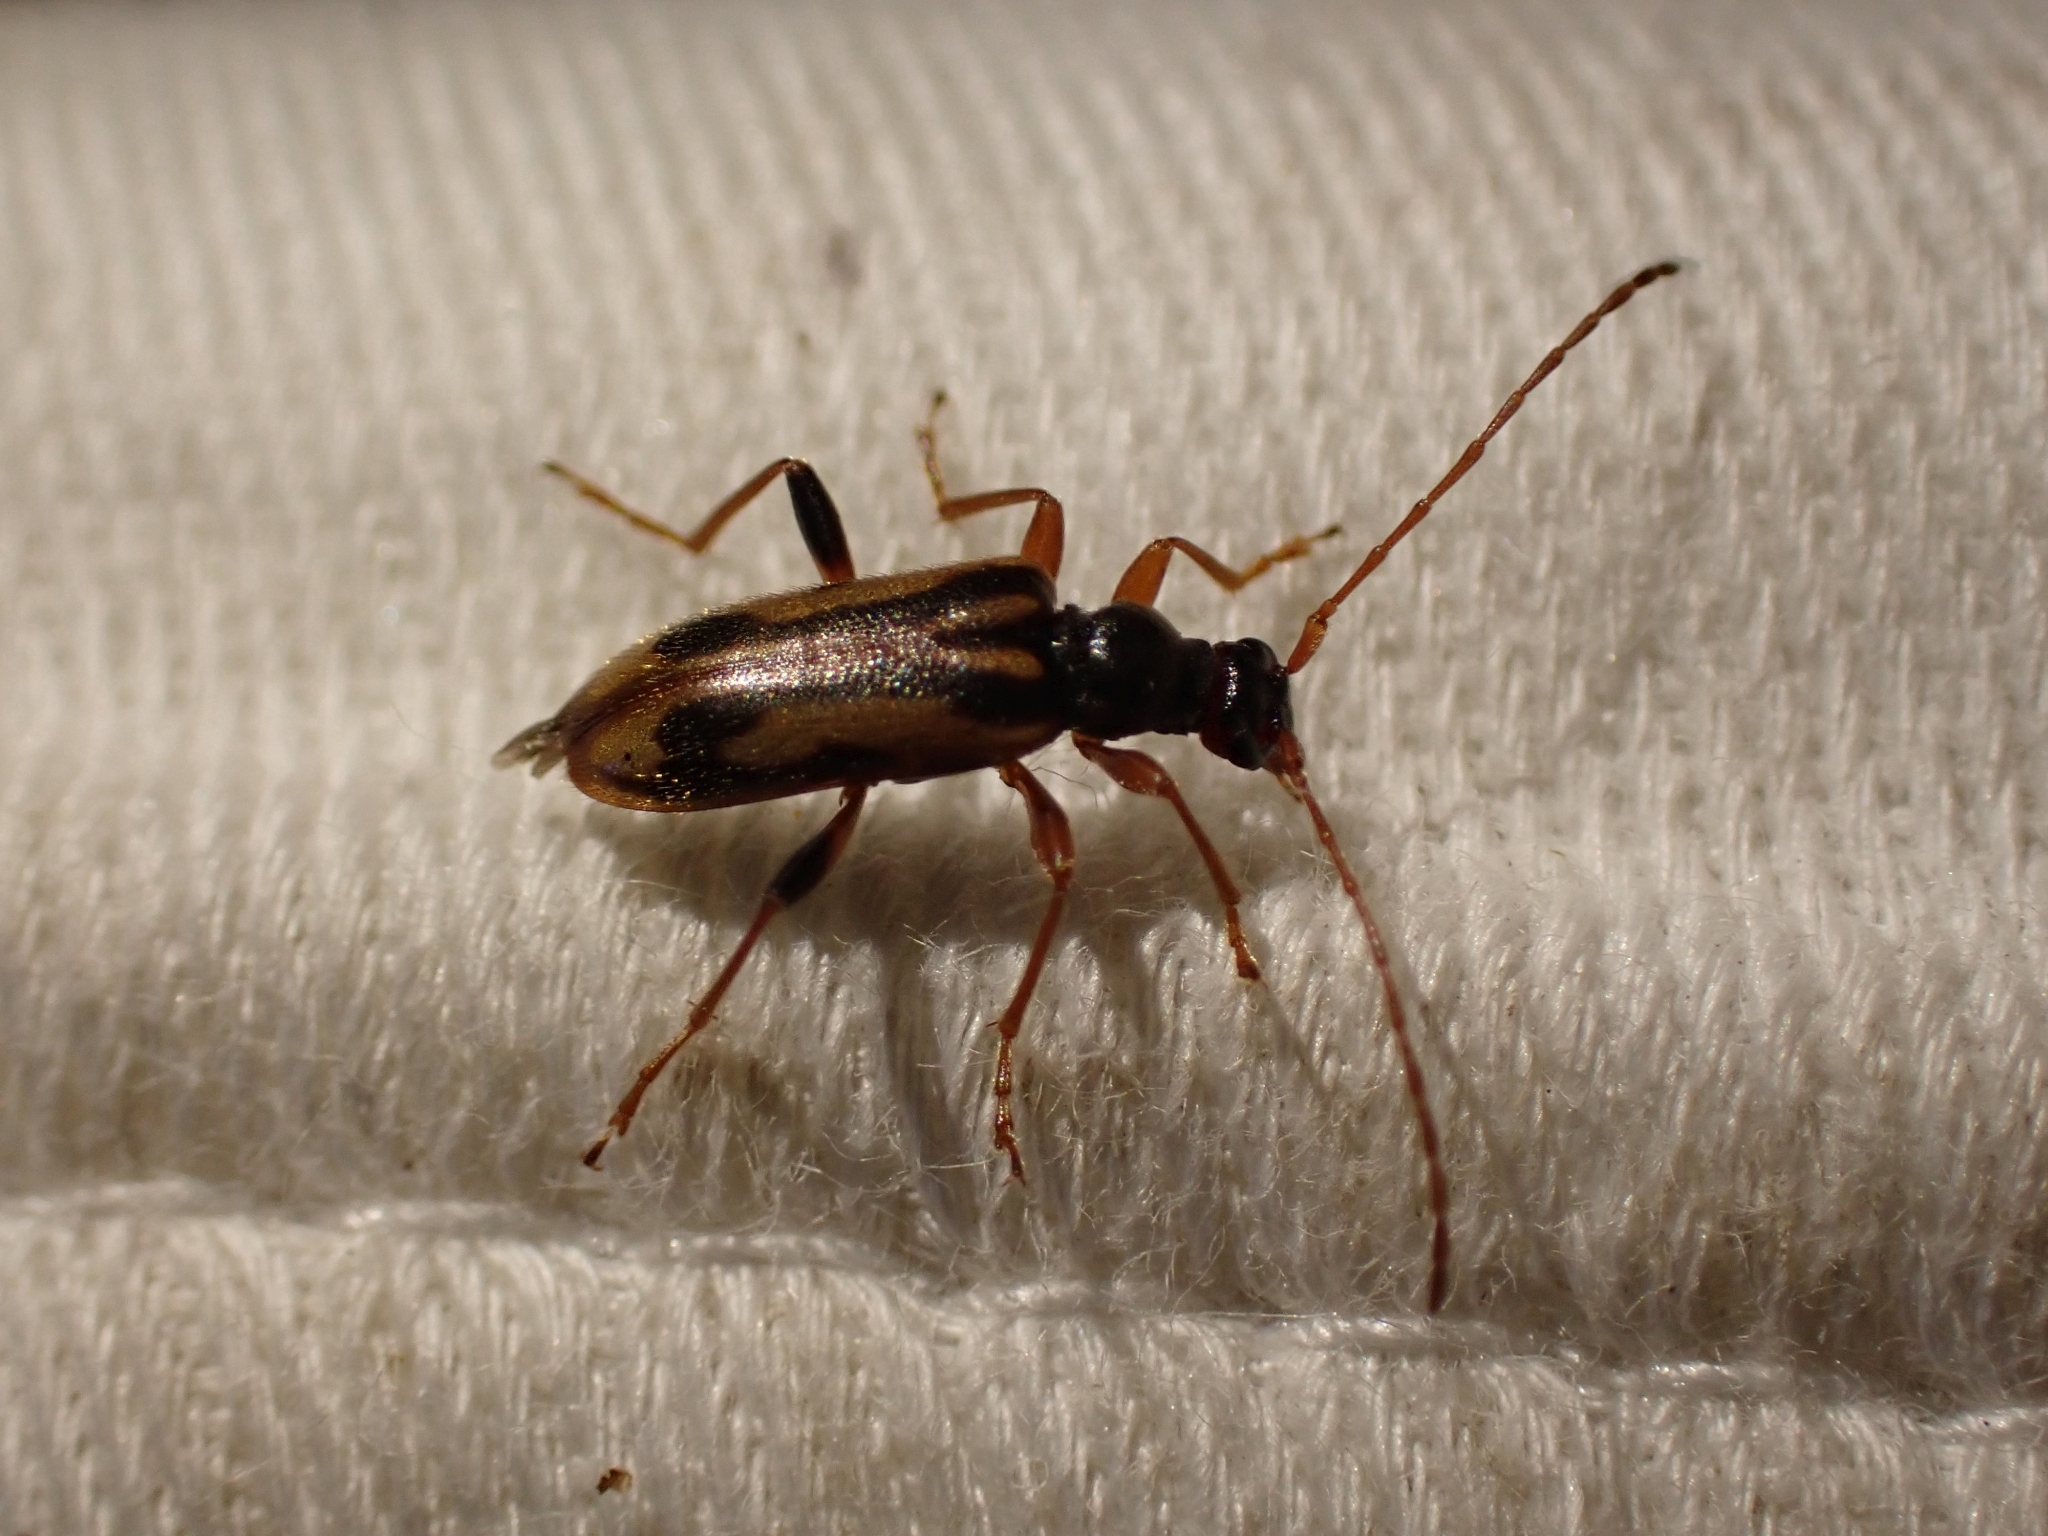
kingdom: Animalia
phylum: Arthropoda
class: Insecta
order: Coleoptera
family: Cerambycidae
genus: Pidonia
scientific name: Pidonia scripta
